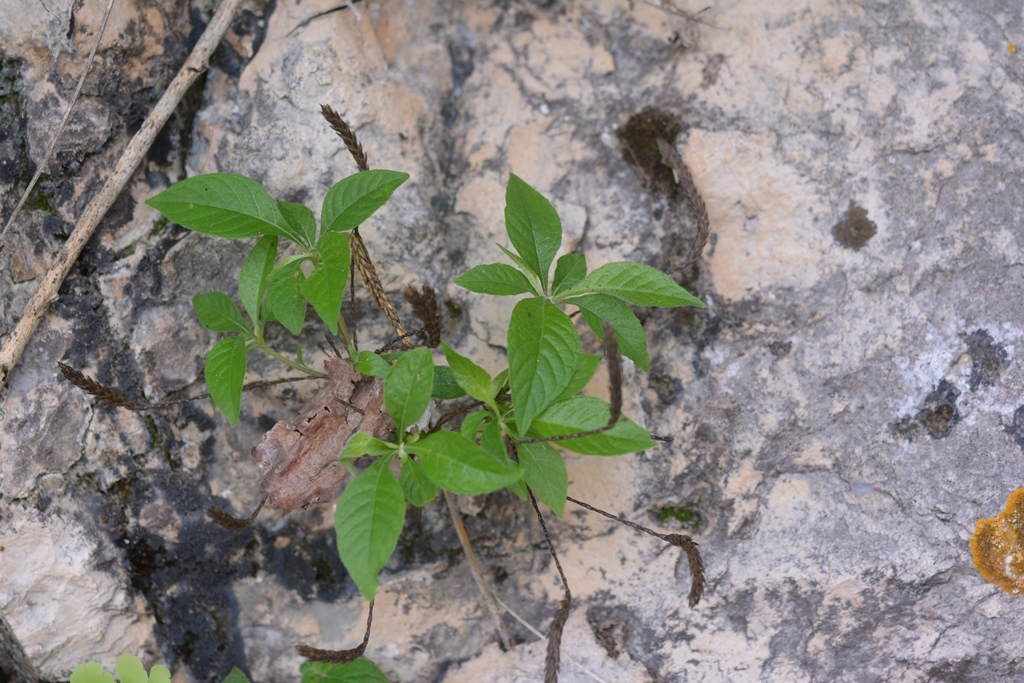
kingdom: Plantae
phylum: Tracheophyta
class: Magnoliopsida
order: Lamiales
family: Acanthaceae
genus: Elytraria
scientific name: Elytraria imbricata
